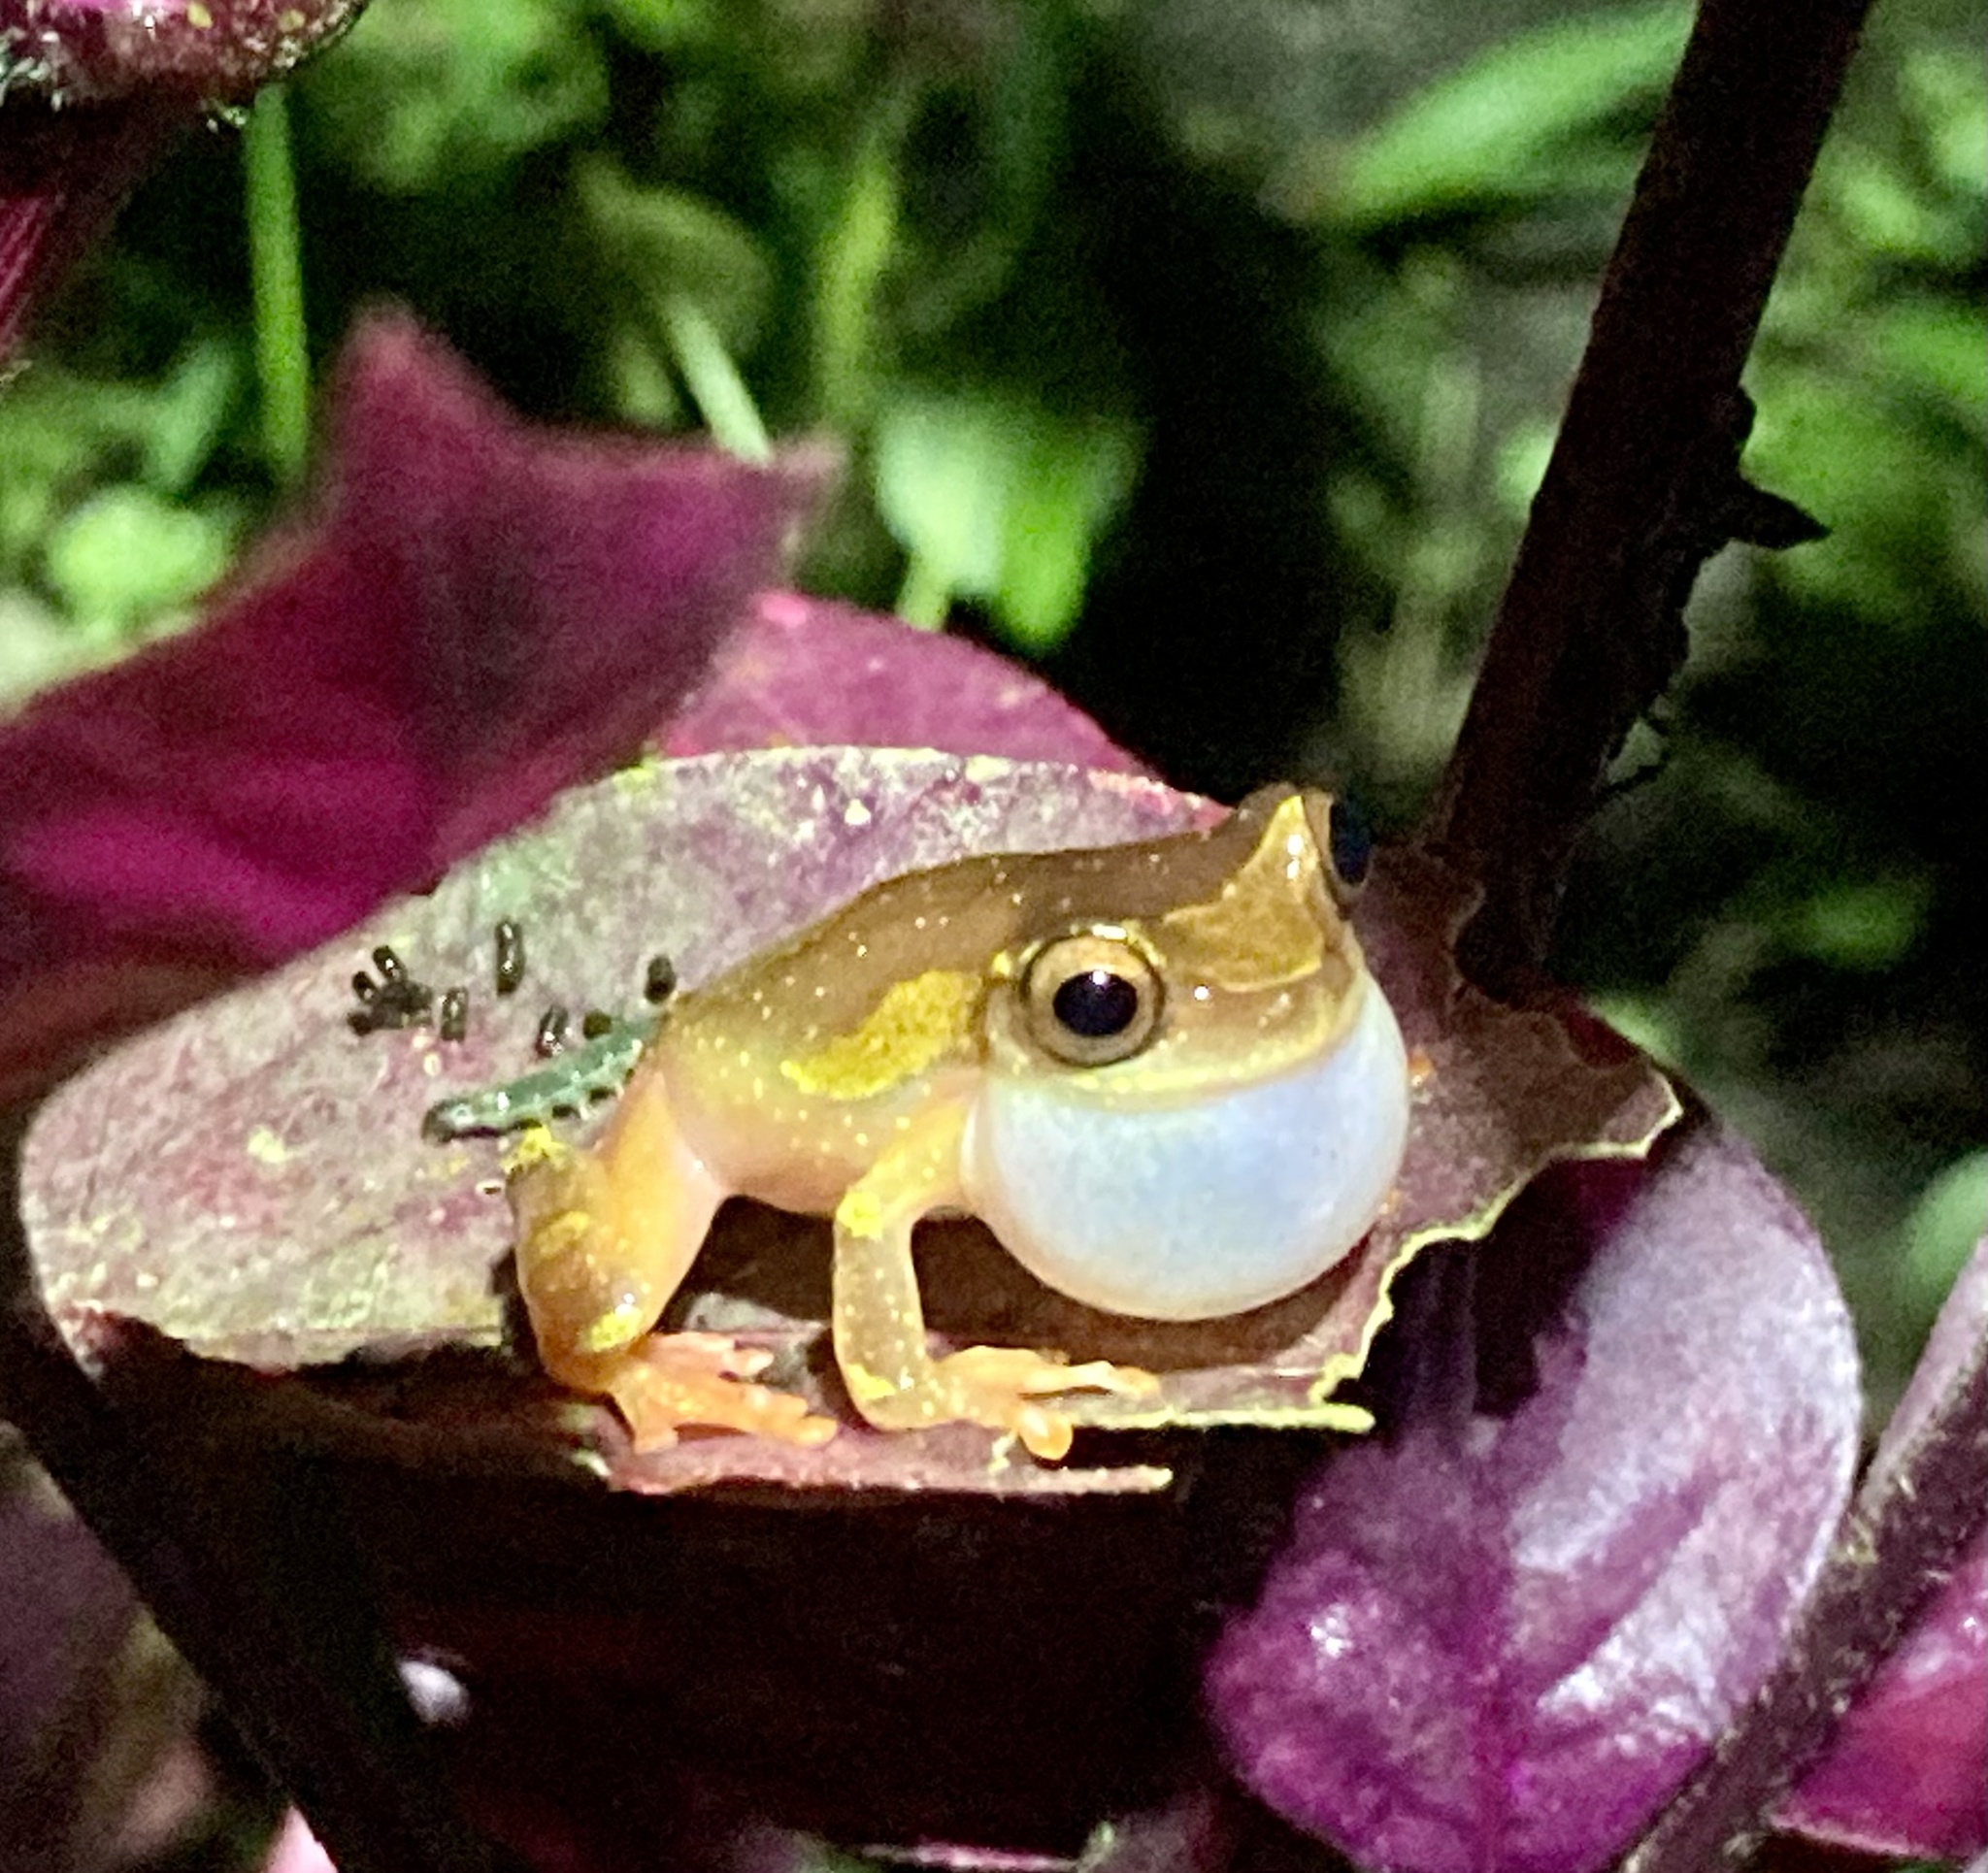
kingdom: Animalia
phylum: Chordata
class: Amphibia
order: Anura
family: Hylidae
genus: Dendropsophus
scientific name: Dendropsophus sarayacuensis
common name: Shreve's sarayacu treefrog
